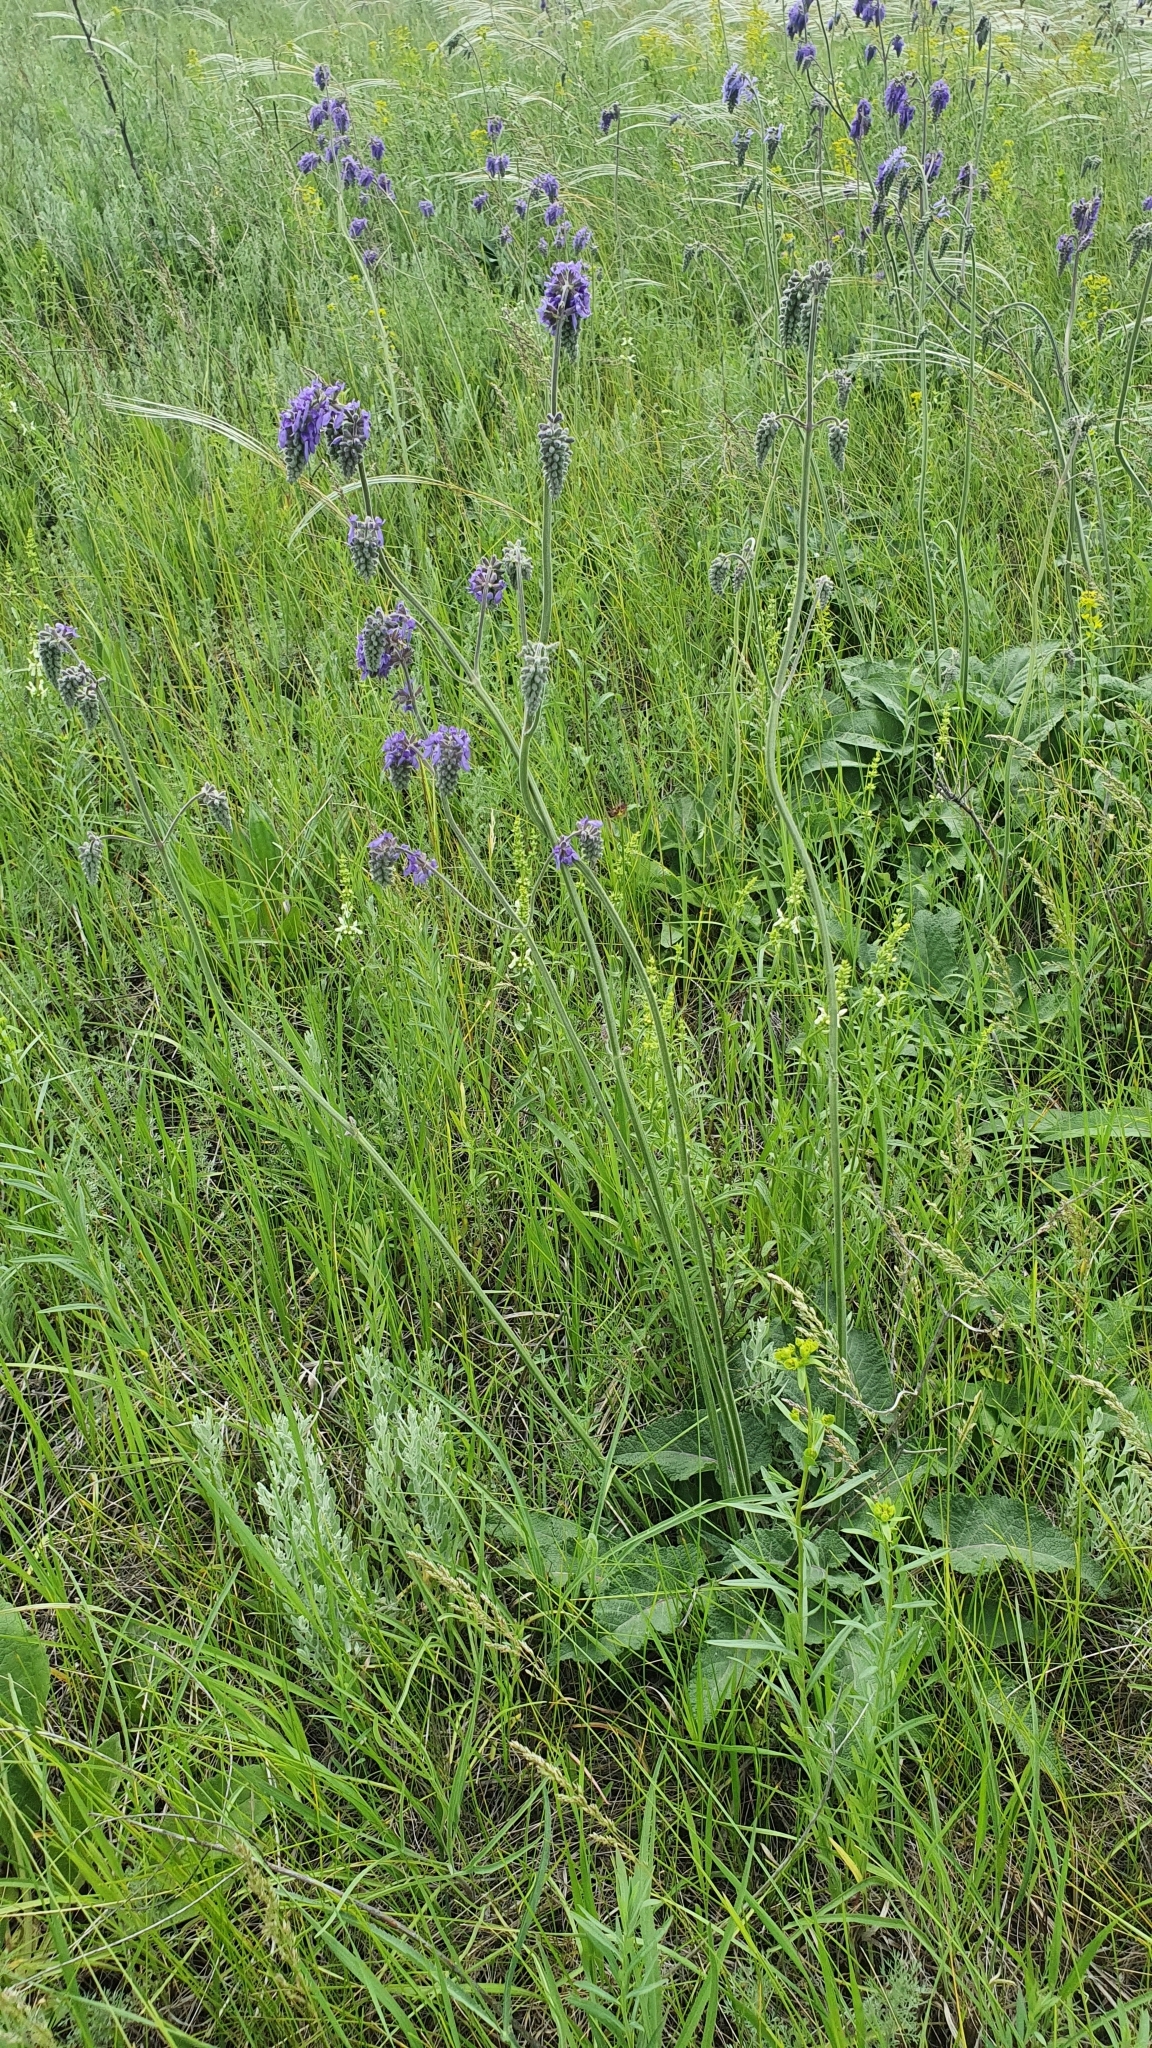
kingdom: Plantae
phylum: Tracheophyta
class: Magnoliopsida
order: Lamiales
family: Lamiaceae
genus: Salvia
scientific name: Salvia nutans
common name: Nodding sage
